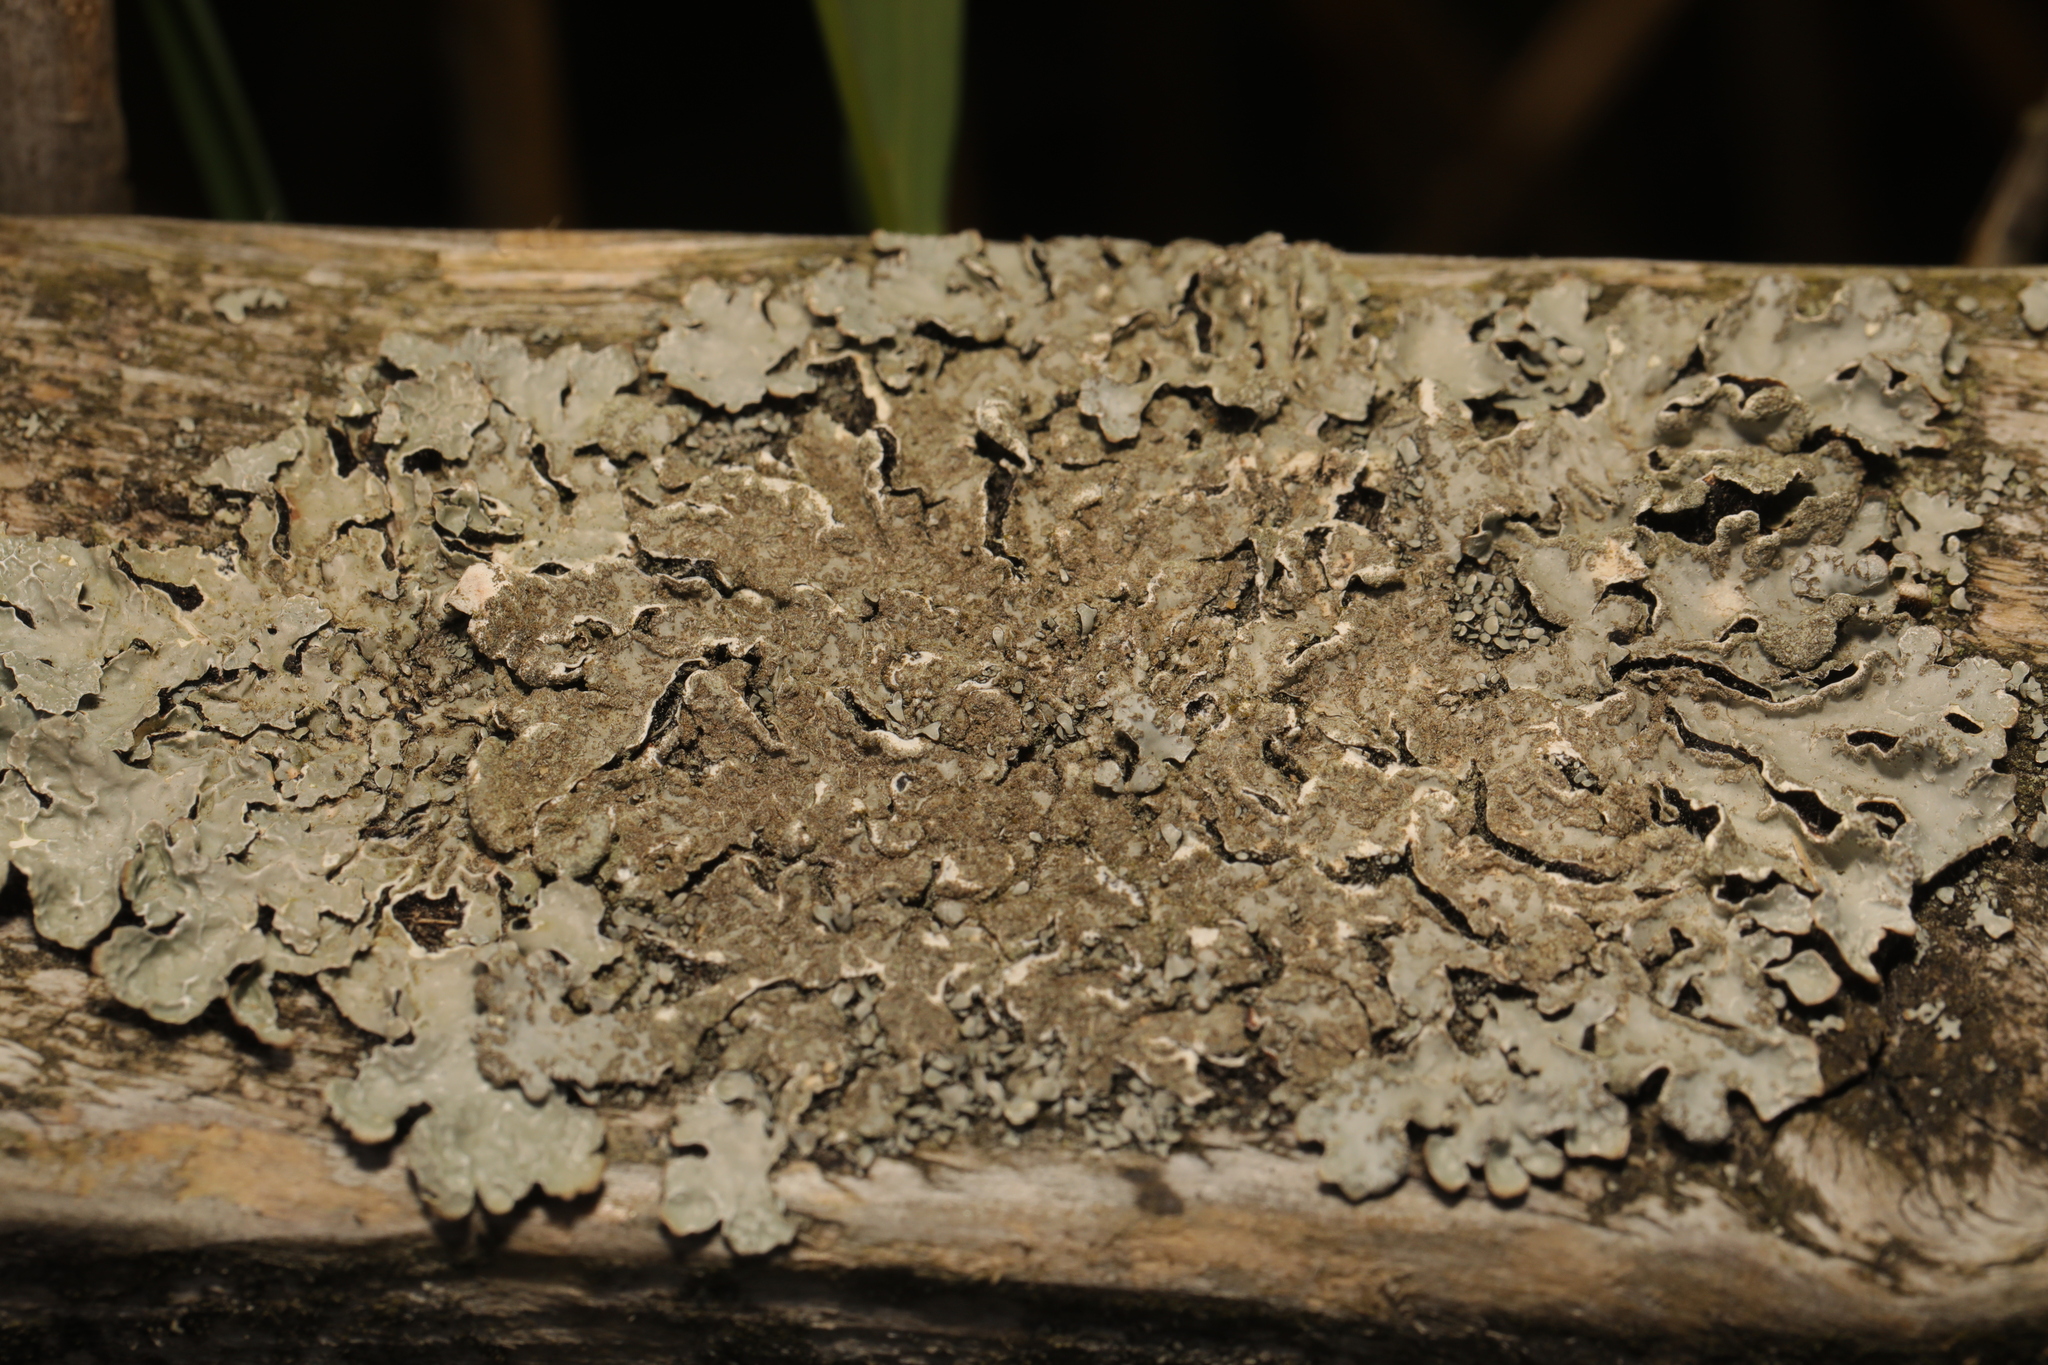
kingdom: Fungi
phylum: Ascomycota
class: Lecanoromycetes
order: Lecanorales
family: Parmeliaceae
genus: Parmelia
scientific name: Parmelia sulcata
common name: Netted shield lichen
